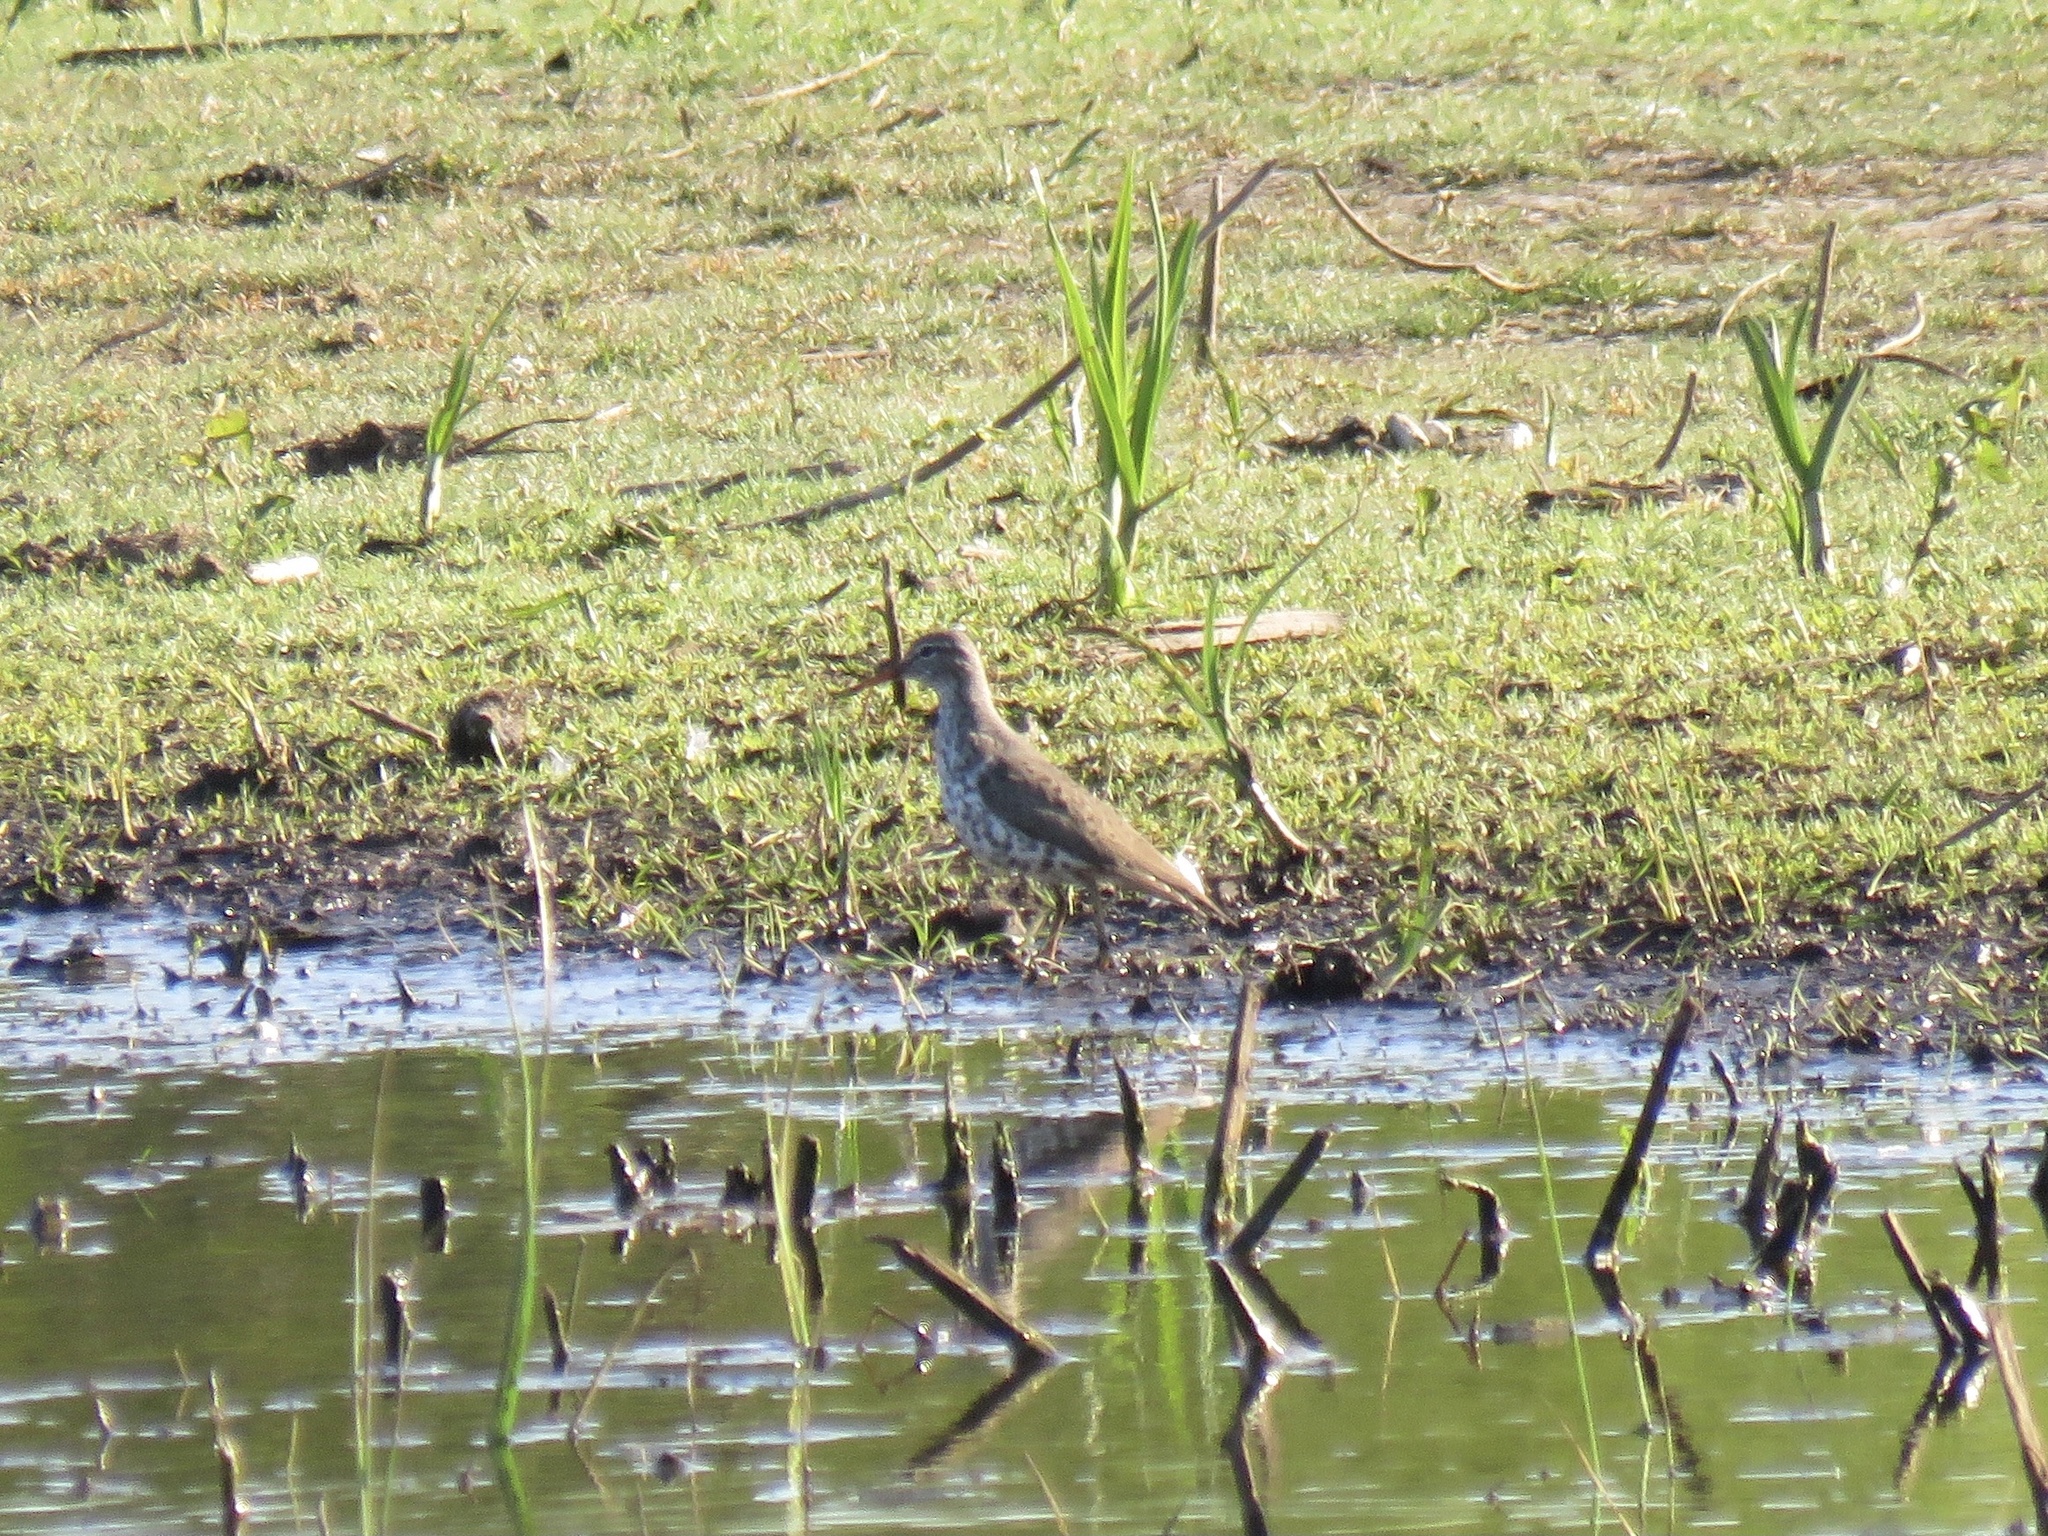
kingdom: Animalia
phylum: Chordata
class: Aves
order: Charadriiformes
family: Scolopacidae
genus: Actitis
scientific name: Actitis macularius
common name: Spotted sandpiper
